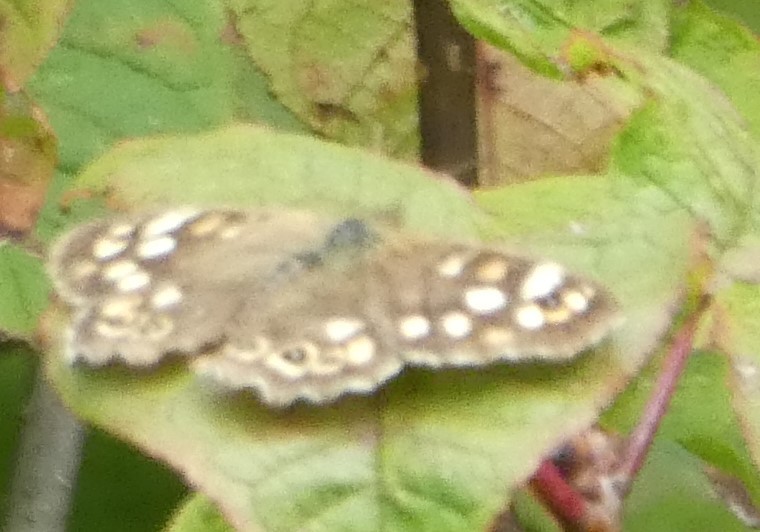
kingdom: Animalia
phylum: Arthropoda
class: Insecta
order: Lepidoptera
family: Nymphalidae
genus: Pararge
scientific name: Pararge aegeria
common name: Speckled wood
